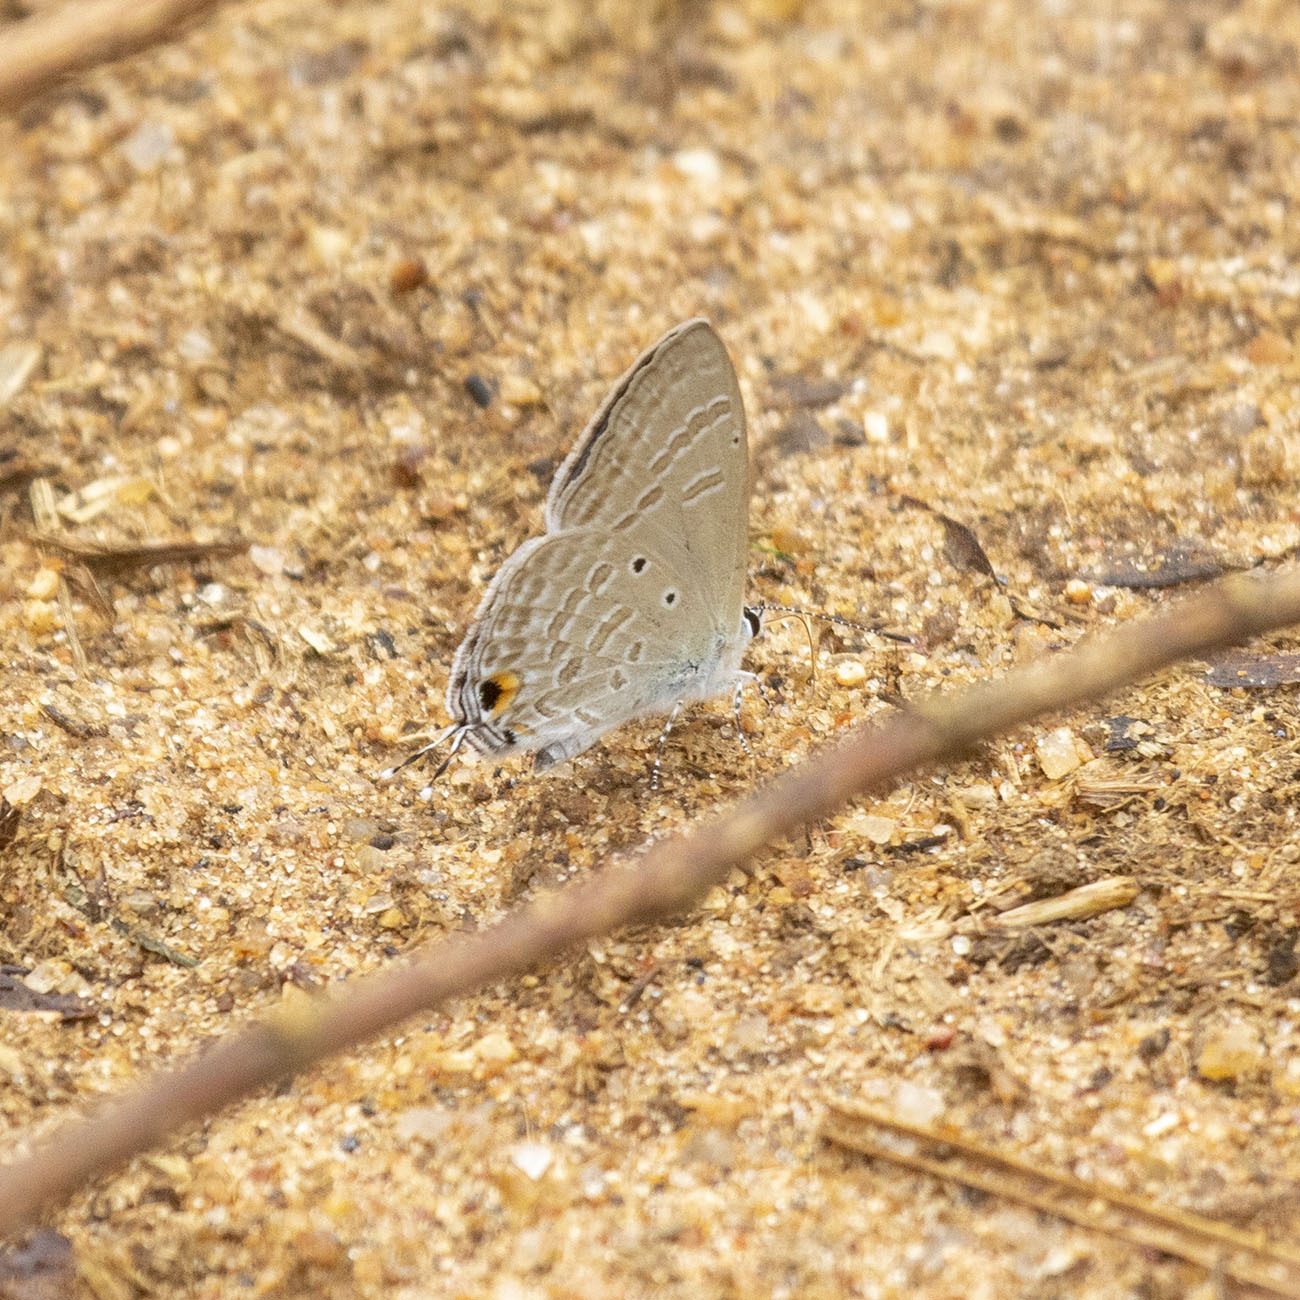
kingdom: Animalia
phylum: Arthropoda
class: Insecta
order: Lepidoptera
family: Lycaenidae
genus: Catochrysops
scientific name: Catochrysops strabo
